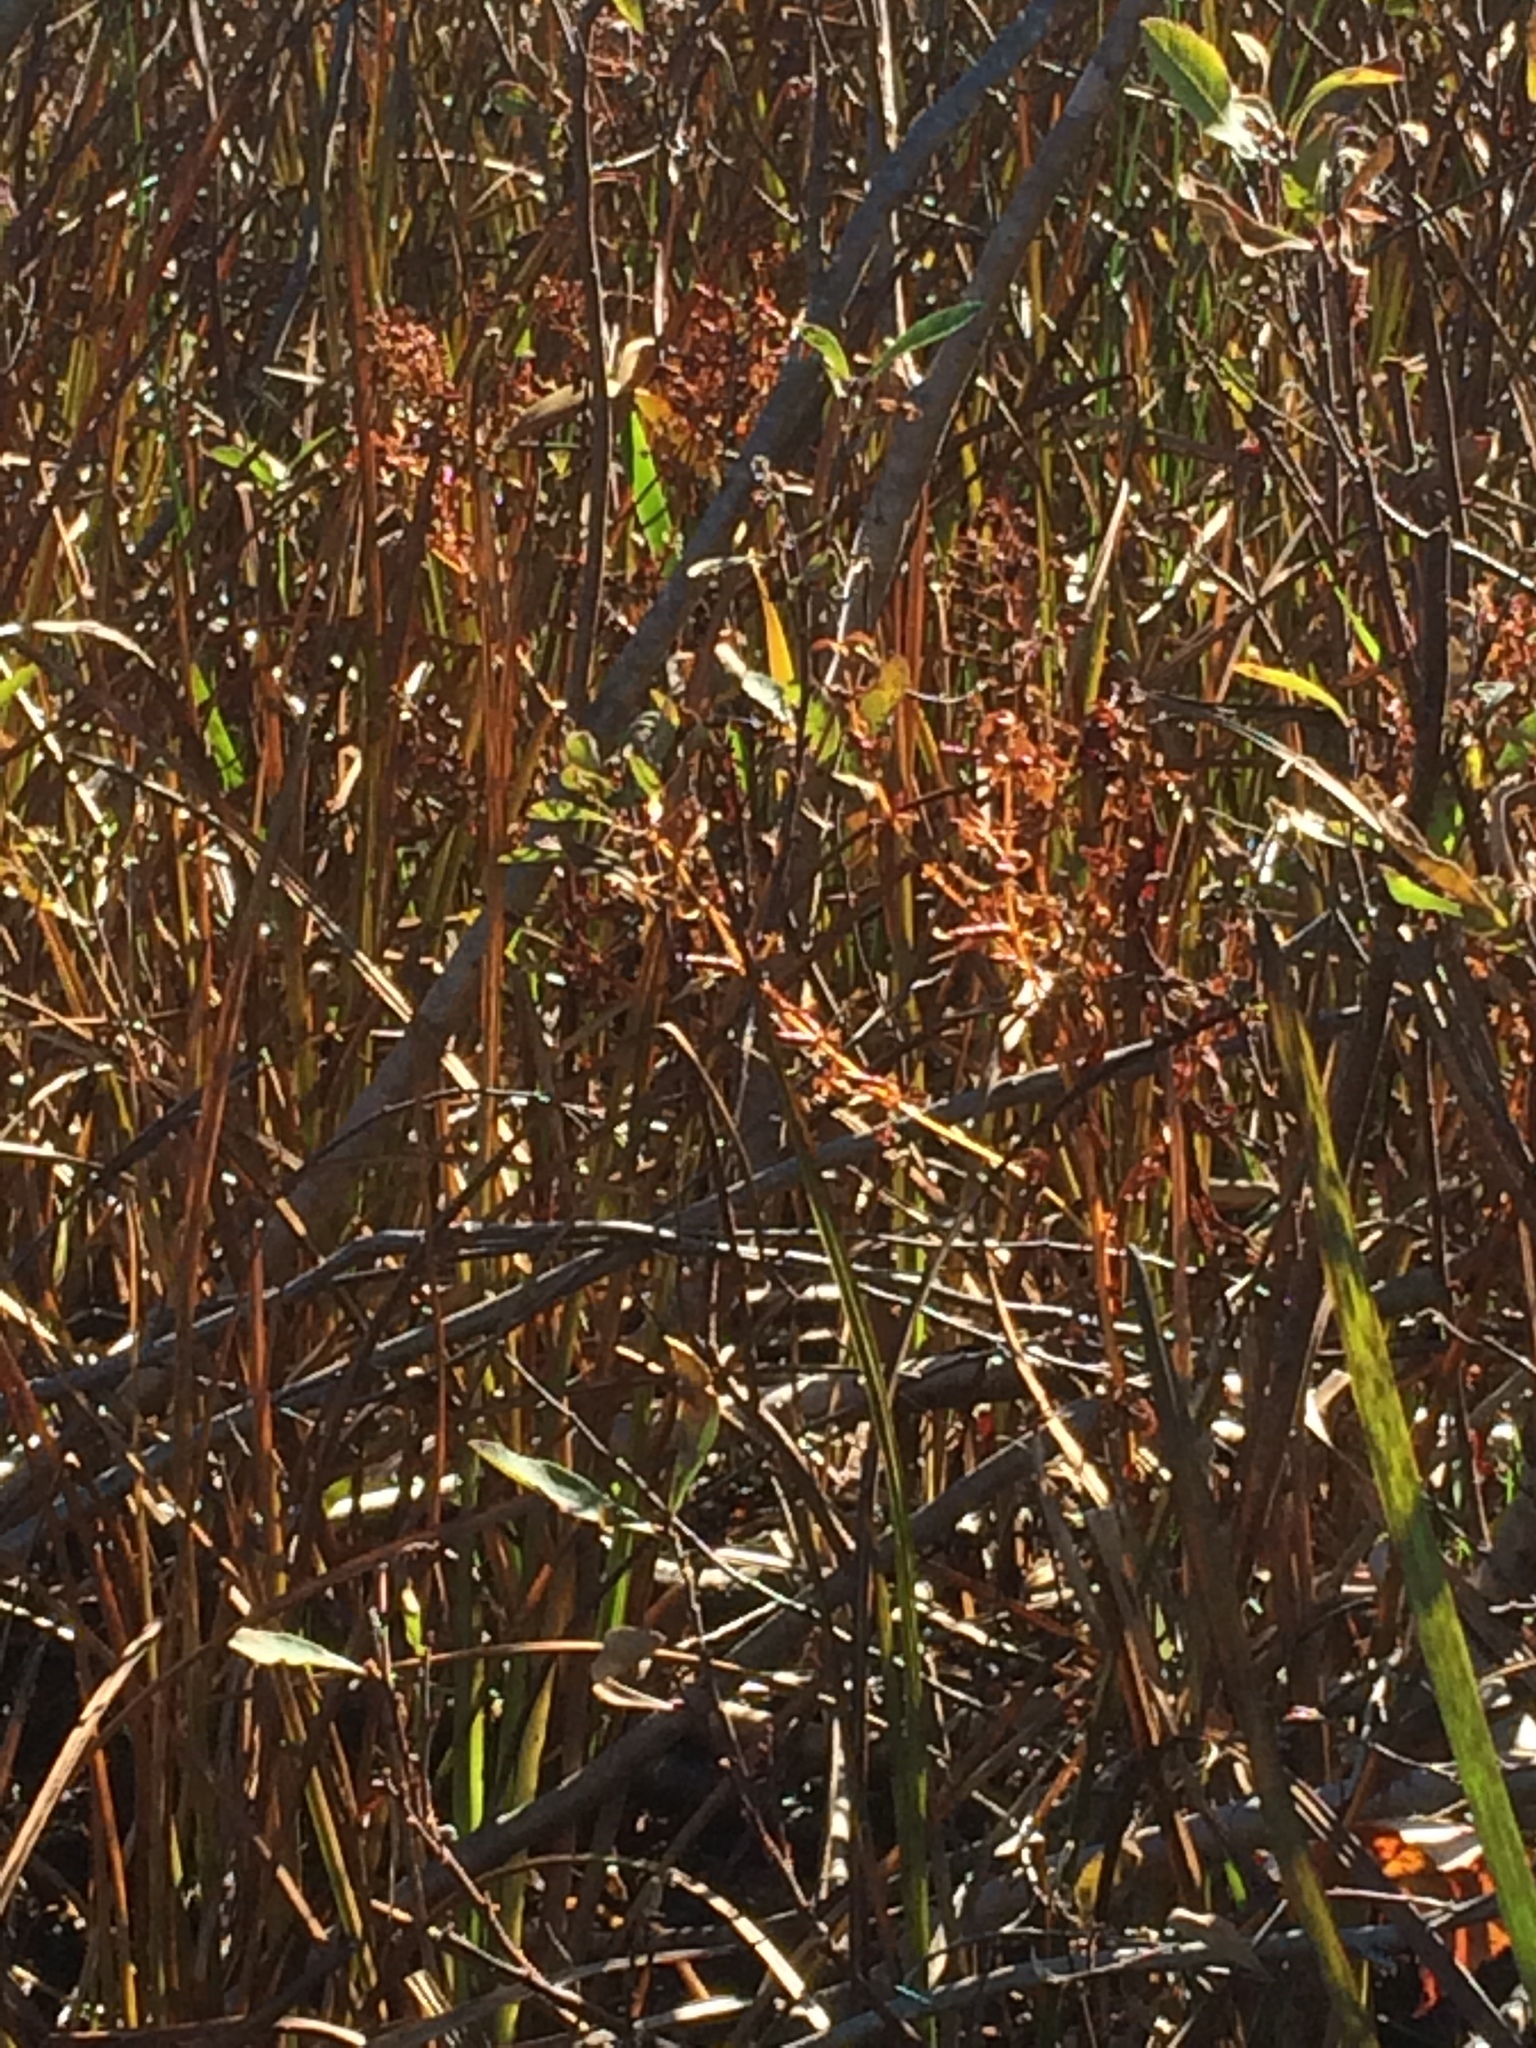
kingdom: Plantae
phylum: Tracheophyta
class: Magnoliopsida
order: Ericales
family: Primulaceae
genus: Lysimachia
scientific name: Lysimachia terrestris
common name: Lake loosestrife
